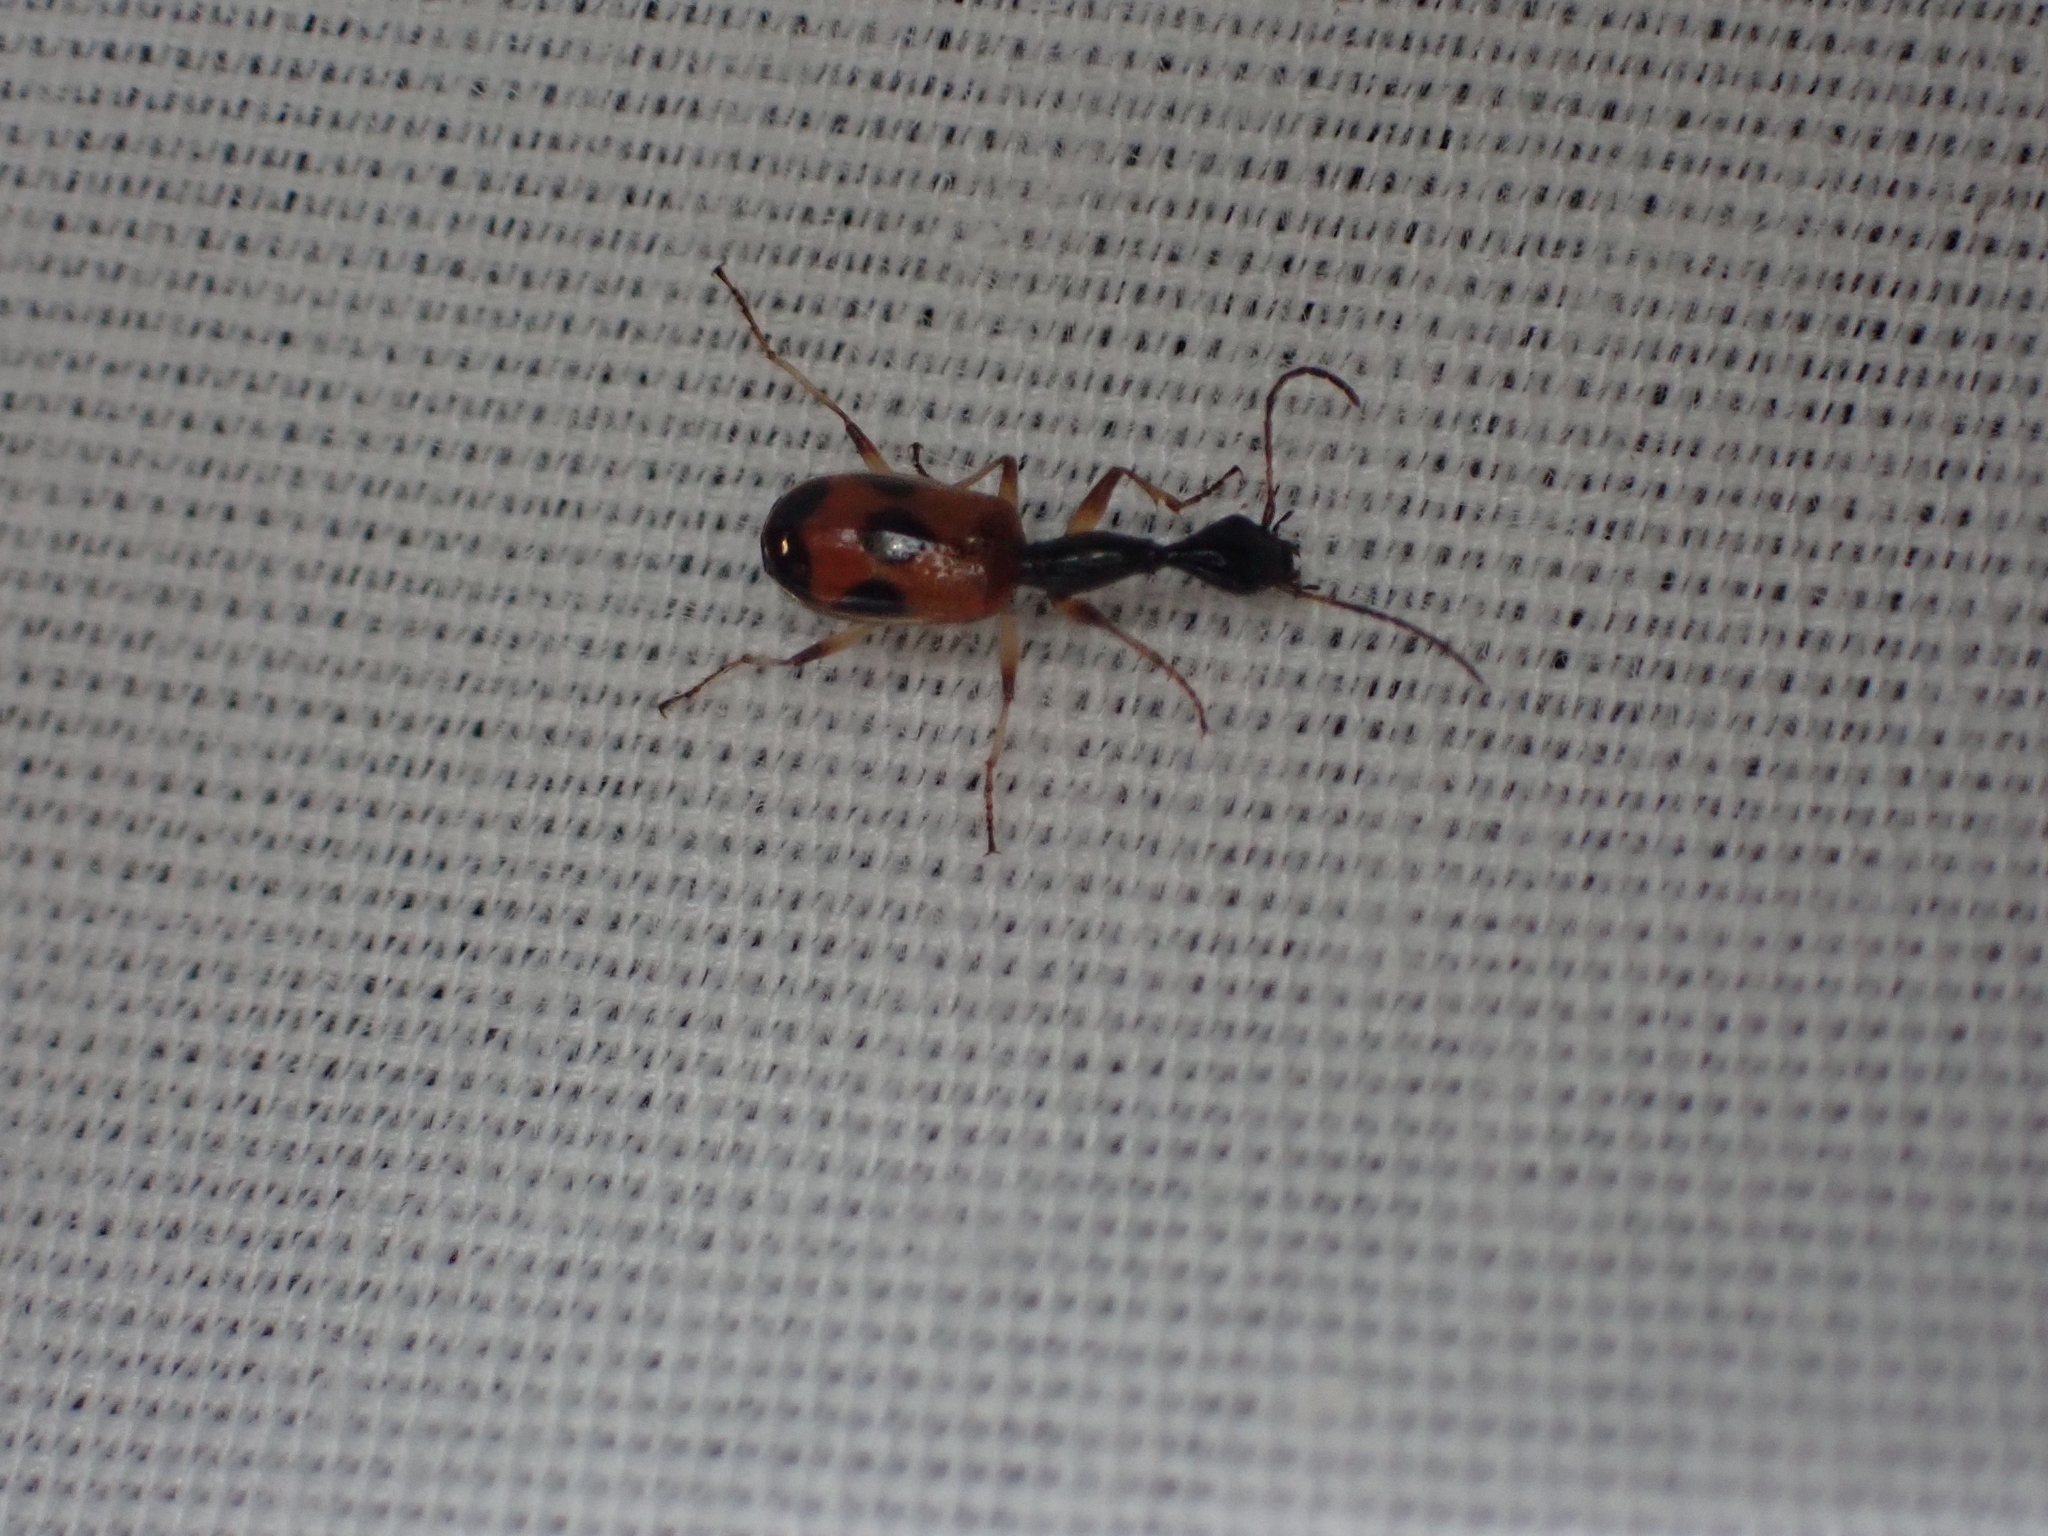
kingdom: Animalia
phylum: Arthropoda
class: Insecta
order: Coleoptera
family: Carabidae
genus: Colliuris
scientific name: Colliuris pensylvanica
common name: Long-necked ground beetle
